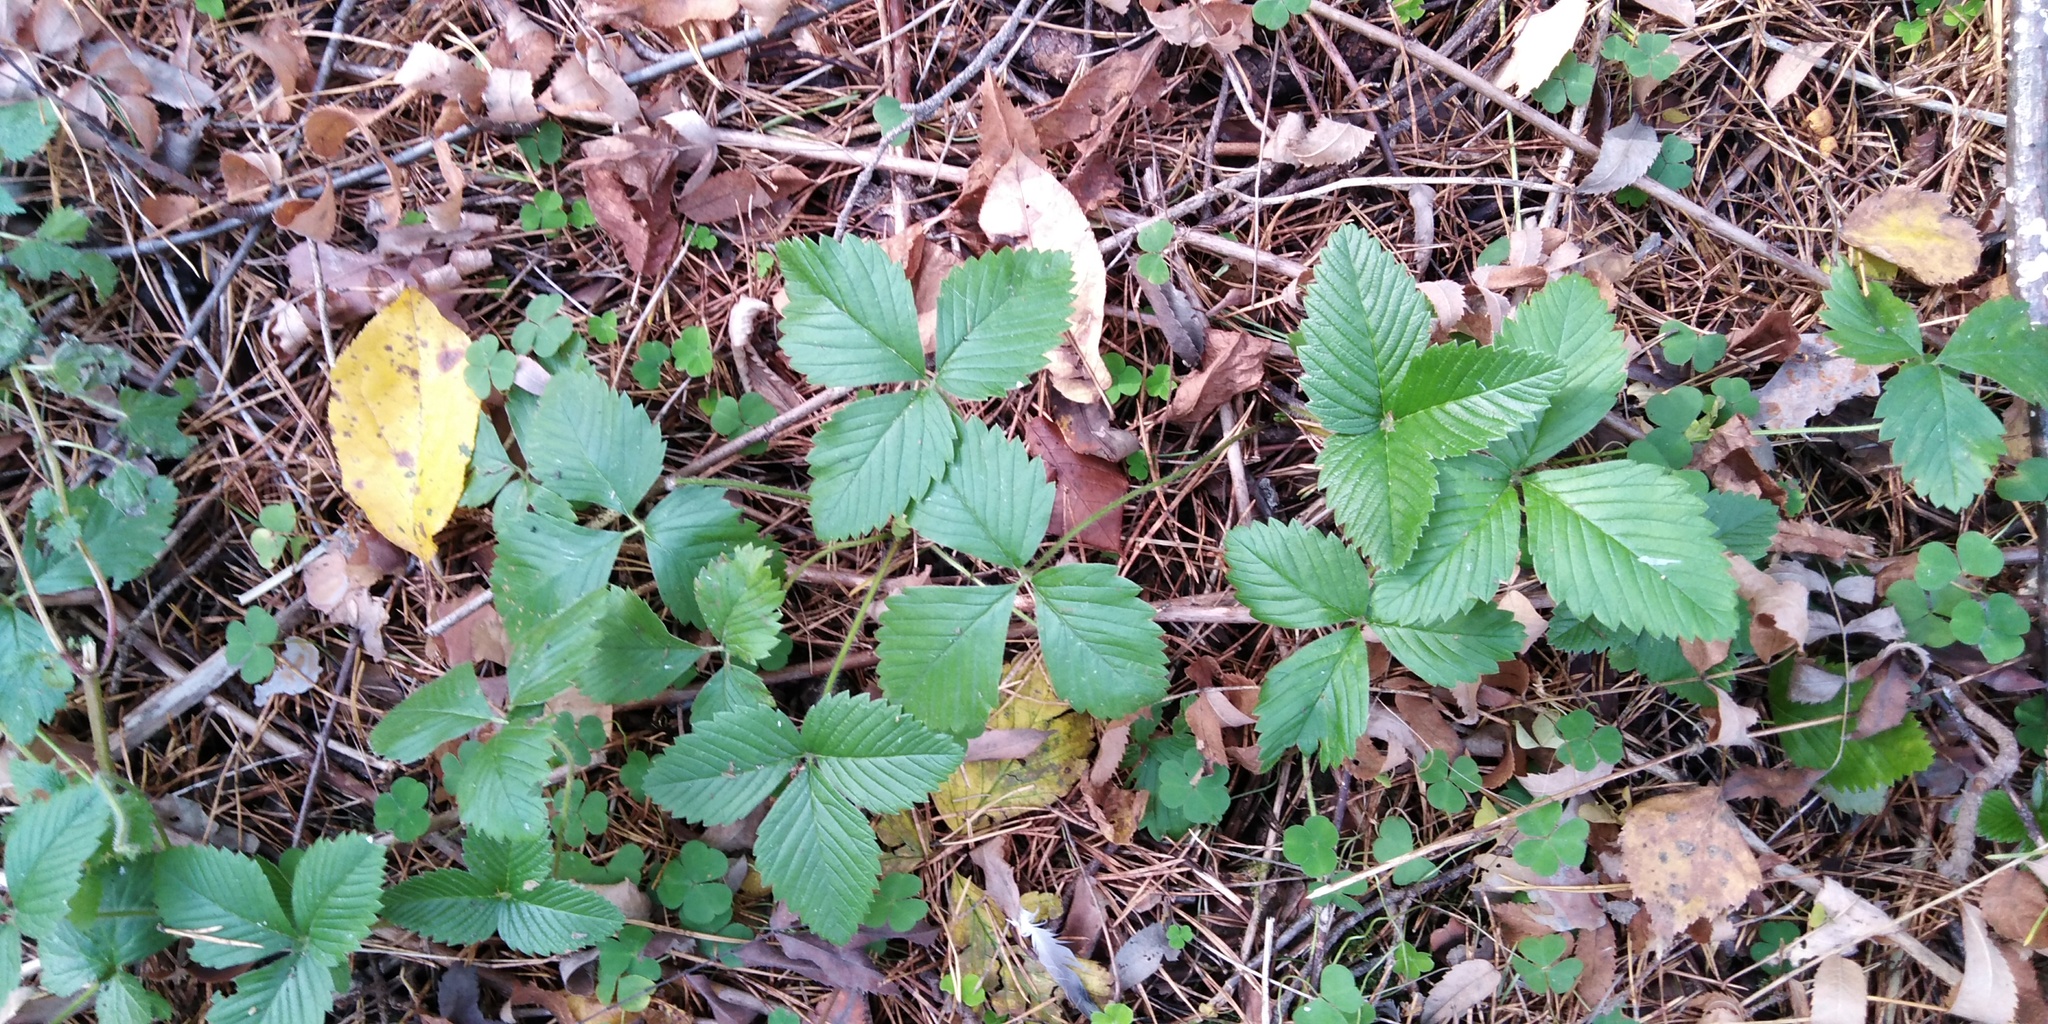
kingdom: Plantae
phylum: Tracheophyta
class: Magnoliopsida
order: Rosales
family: Rosaceae
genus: Fragaria
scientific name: Fragaria moschata
